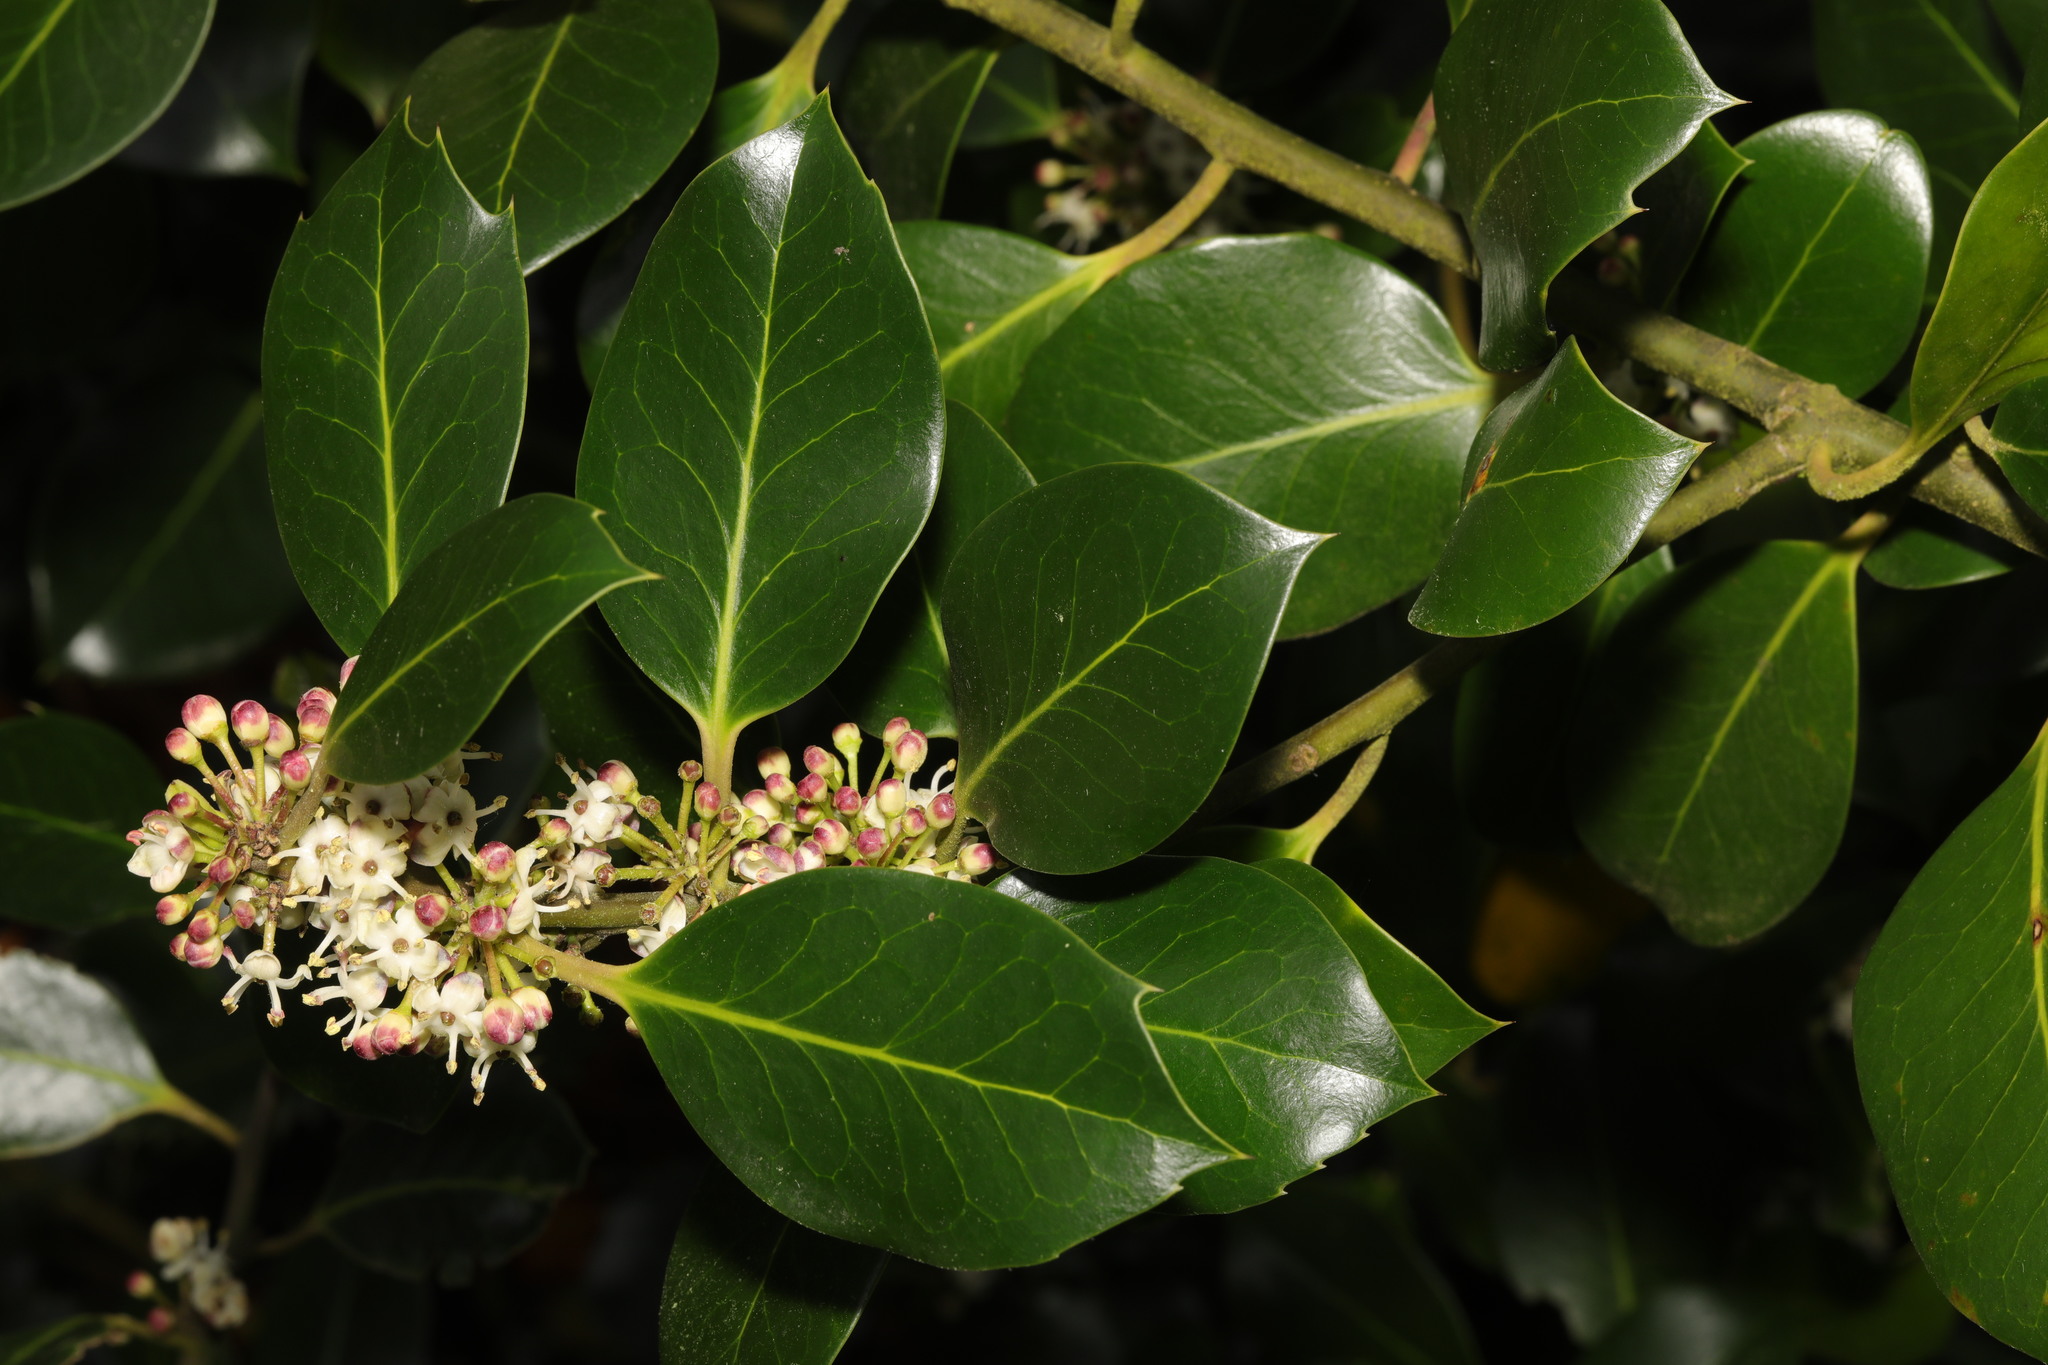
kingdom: Plantae
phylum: Tracheophyta
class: Magnoliopsida
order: Aquifoliales
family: Aquifoliaceae
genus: Ilex
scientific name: Ilex aquifolium
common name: English holly
